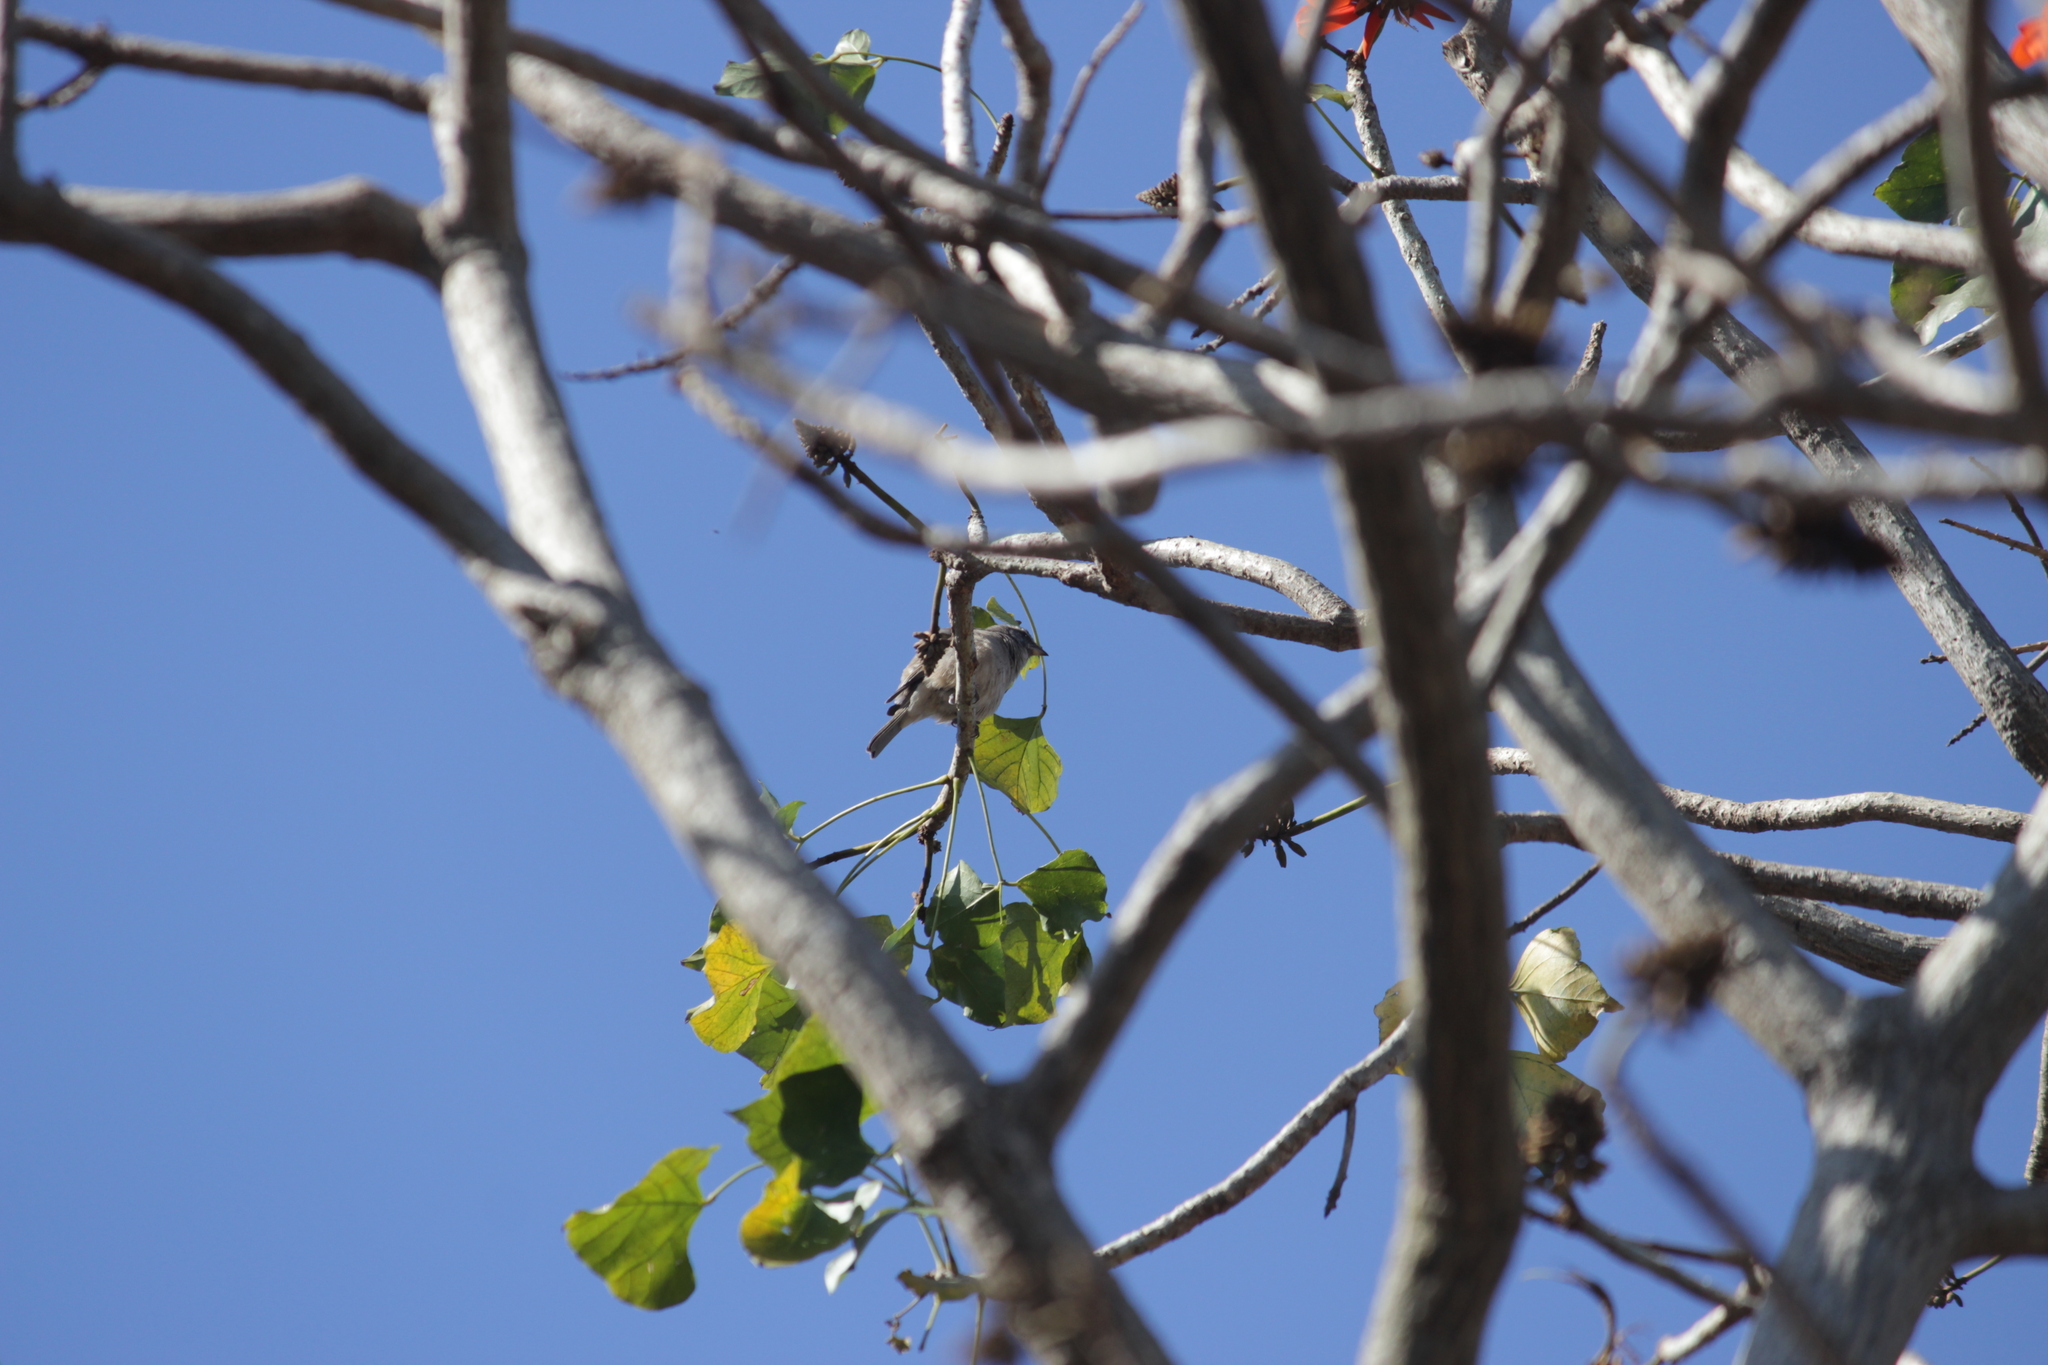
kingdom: Animalia
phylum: Chordata
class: Aves
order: Passeriformes
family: Fringillidae
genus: Crithagra
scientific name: Crithagra gularis
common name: Streaky-headed seedeater
